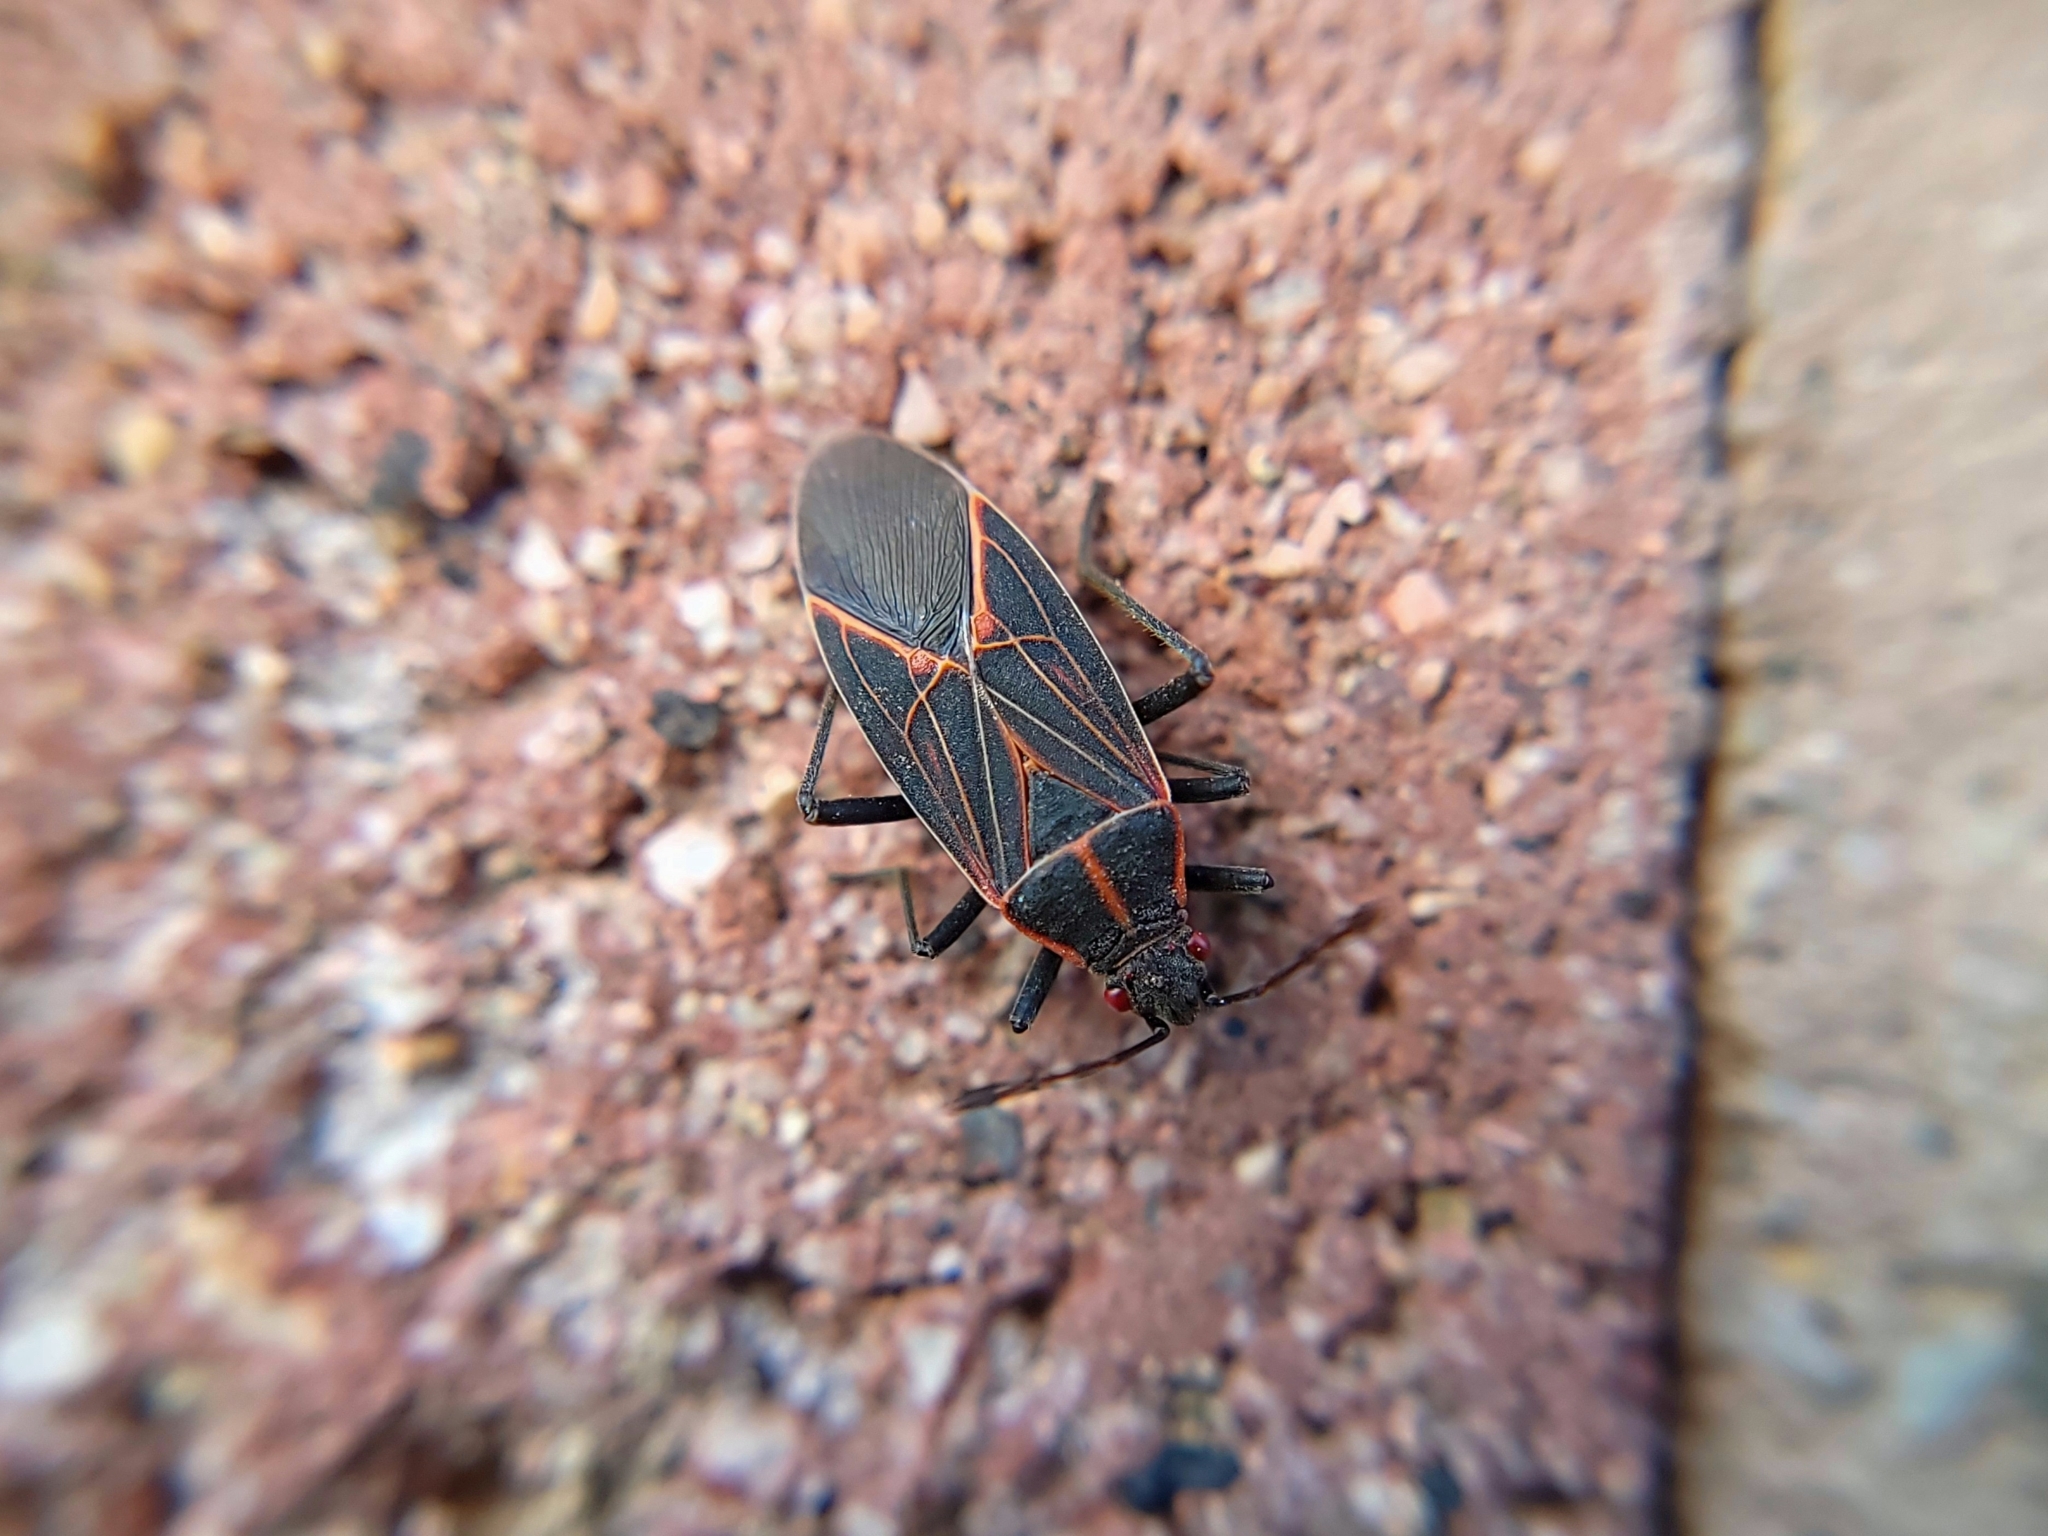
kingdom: Animalia
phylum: Arthropoda
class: Insecta
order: Hemiptera
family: Rhopalidae
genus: Boisea
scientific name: Boisea rubrolineata
